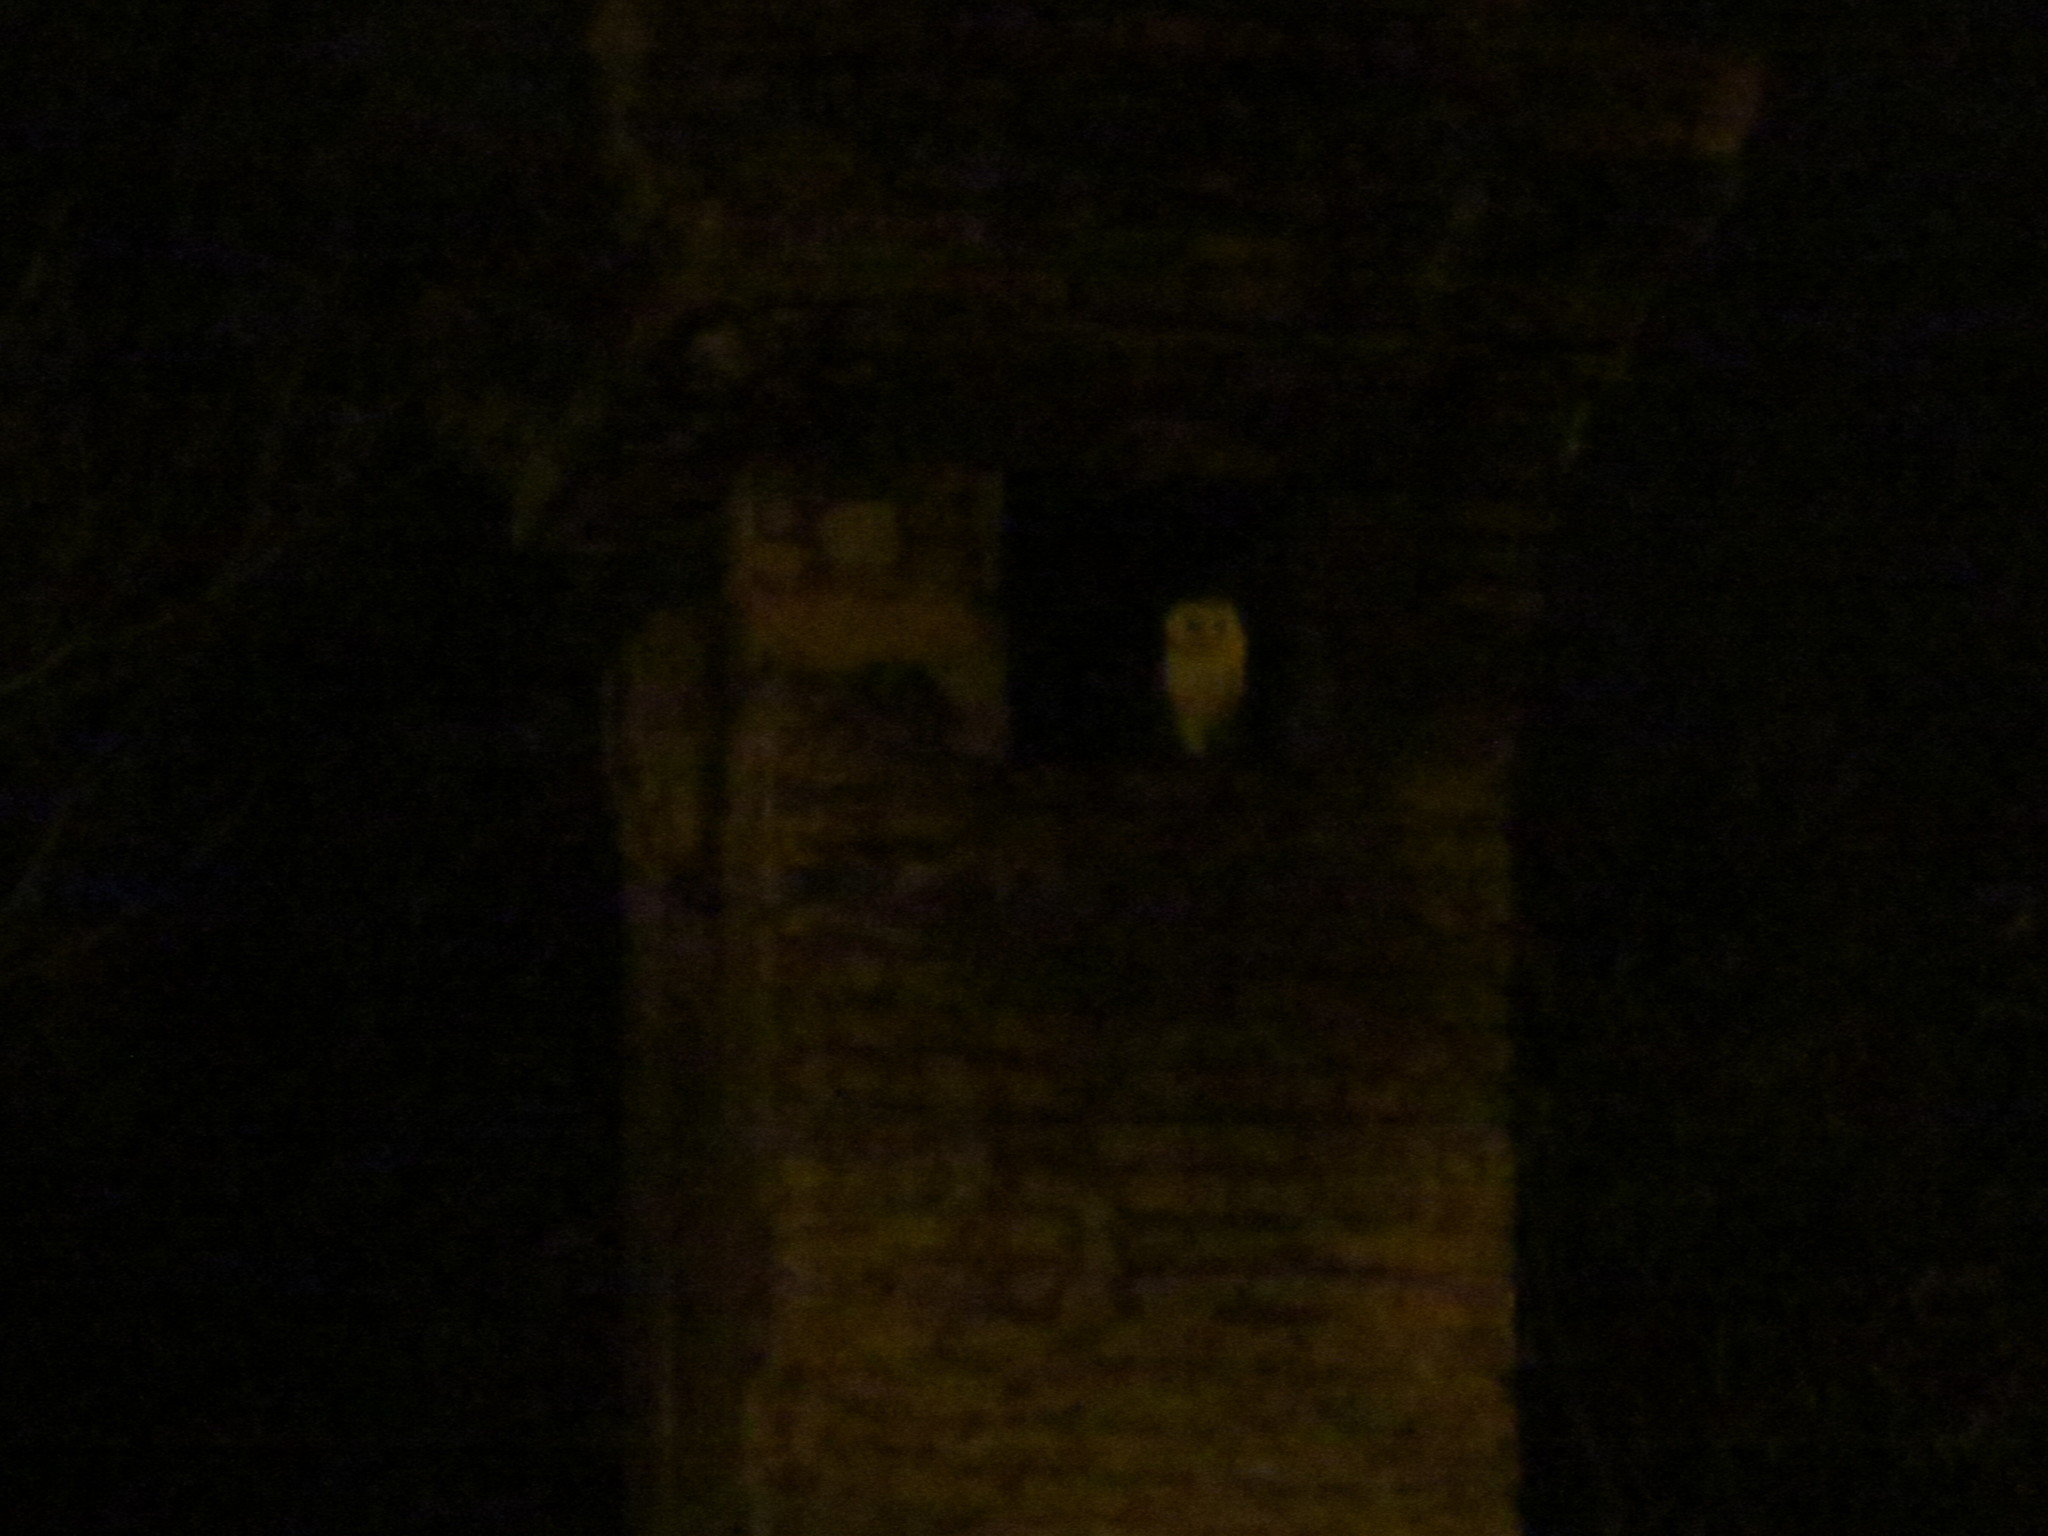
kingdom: Animalia
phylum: Chordata
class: Aves
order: Strigiformes
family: Tytonidae
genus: Tyto
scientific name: Tyto alba
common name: Barn owl
